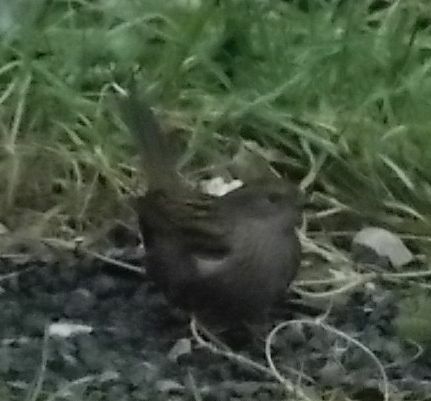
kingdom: Animalia
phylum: Chordata
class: Aves
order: Passeriformes
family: Prunellidae
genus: Prunella
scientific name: Prunella modularis
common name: Dunnock
